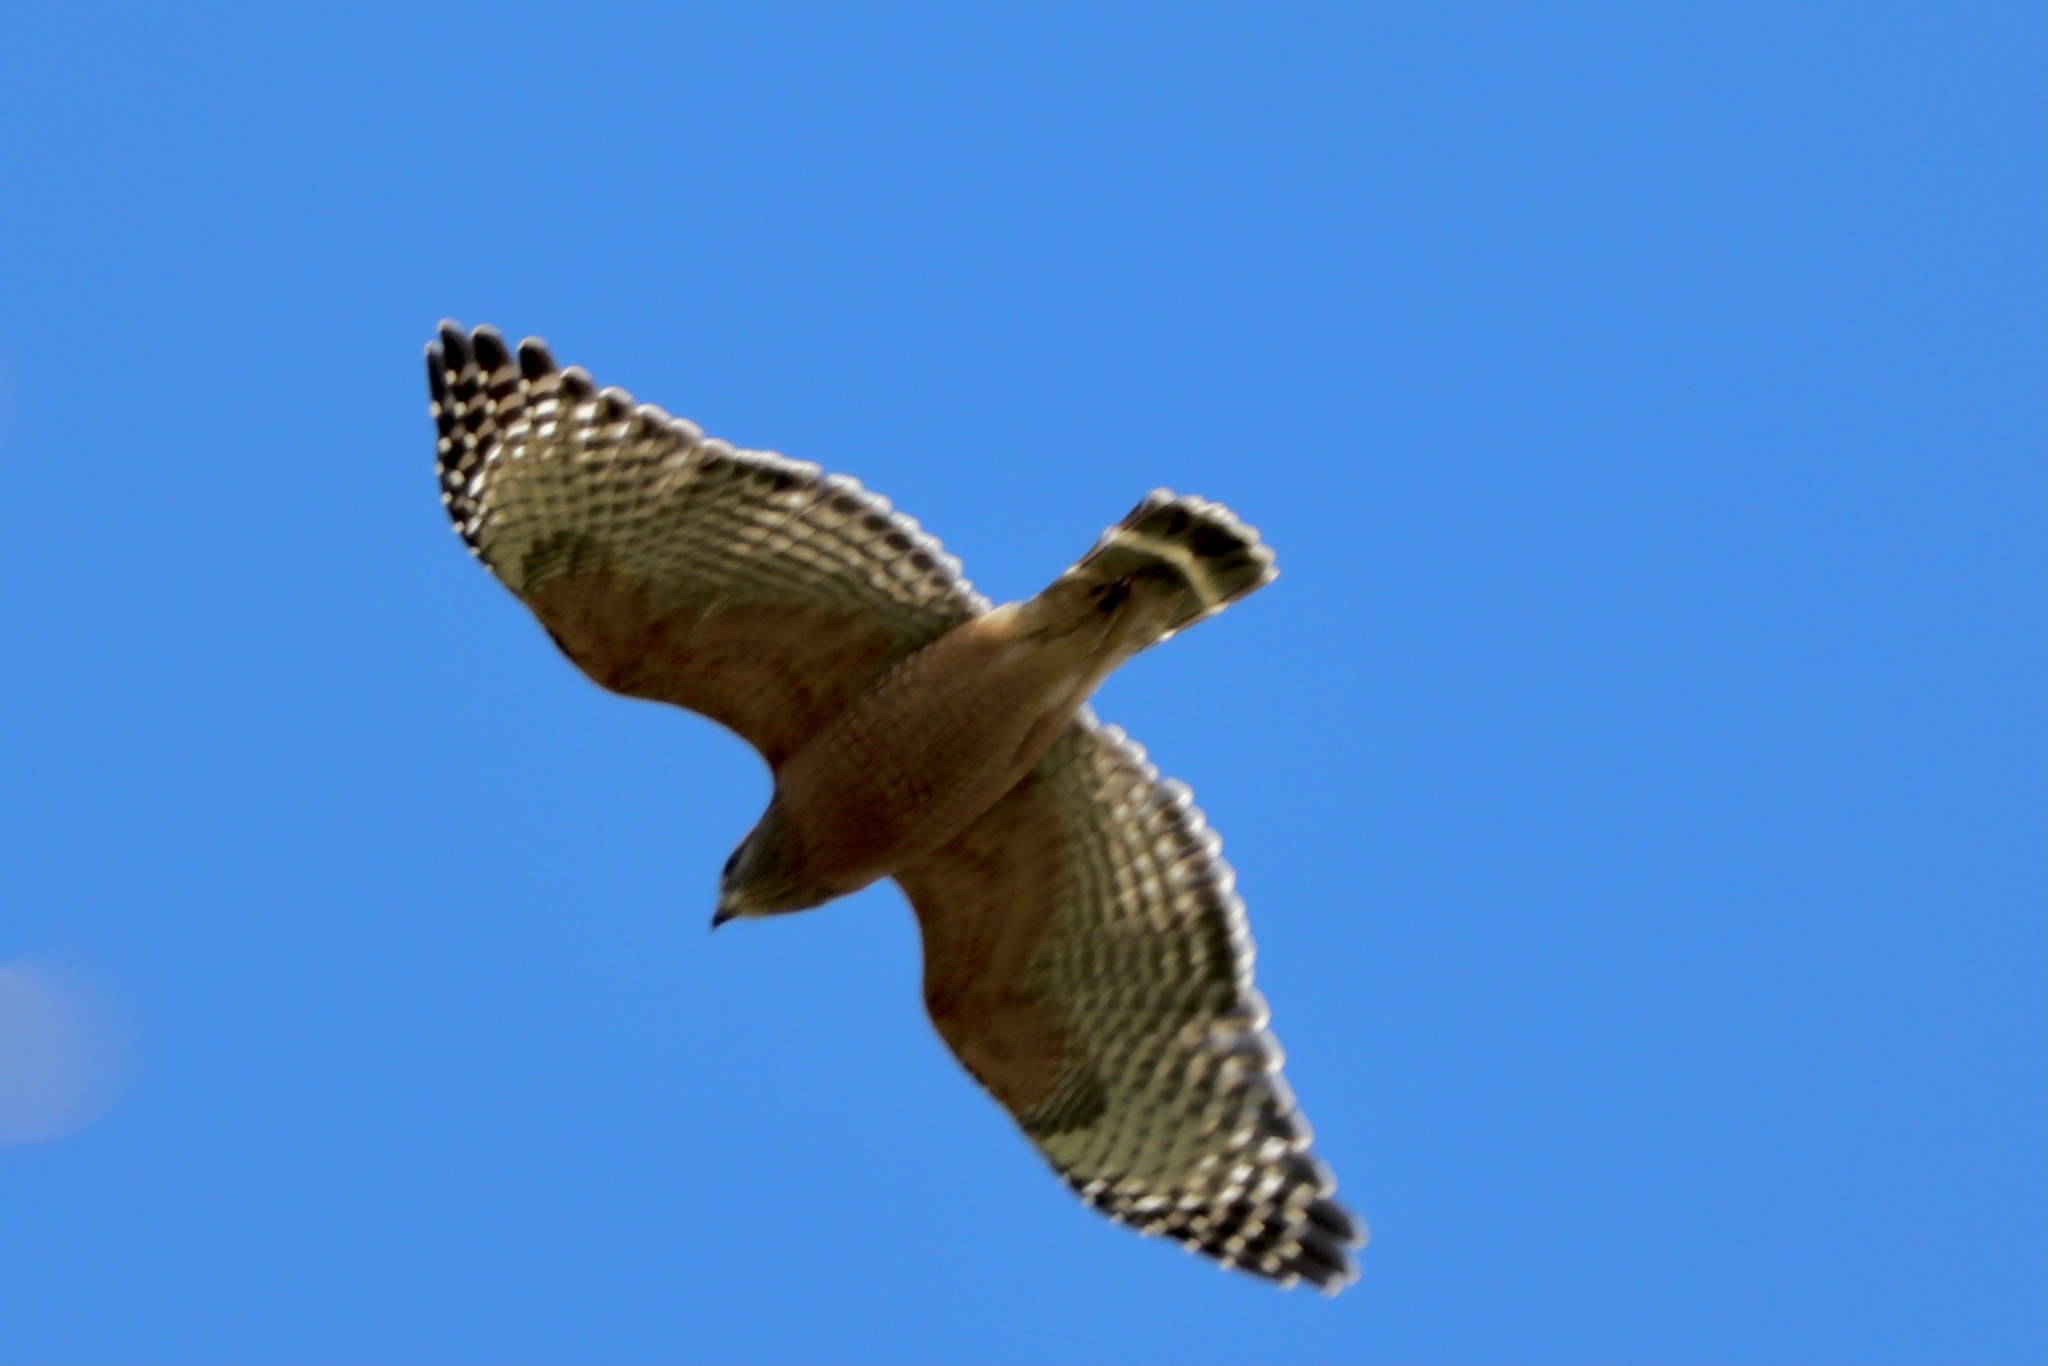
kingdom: Animalia
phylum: Chordata
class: Aves
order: Accipitriformes
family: Accipitridae
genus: Buteo
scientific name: Buteo lineatus
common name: Red-shouldered hawk
